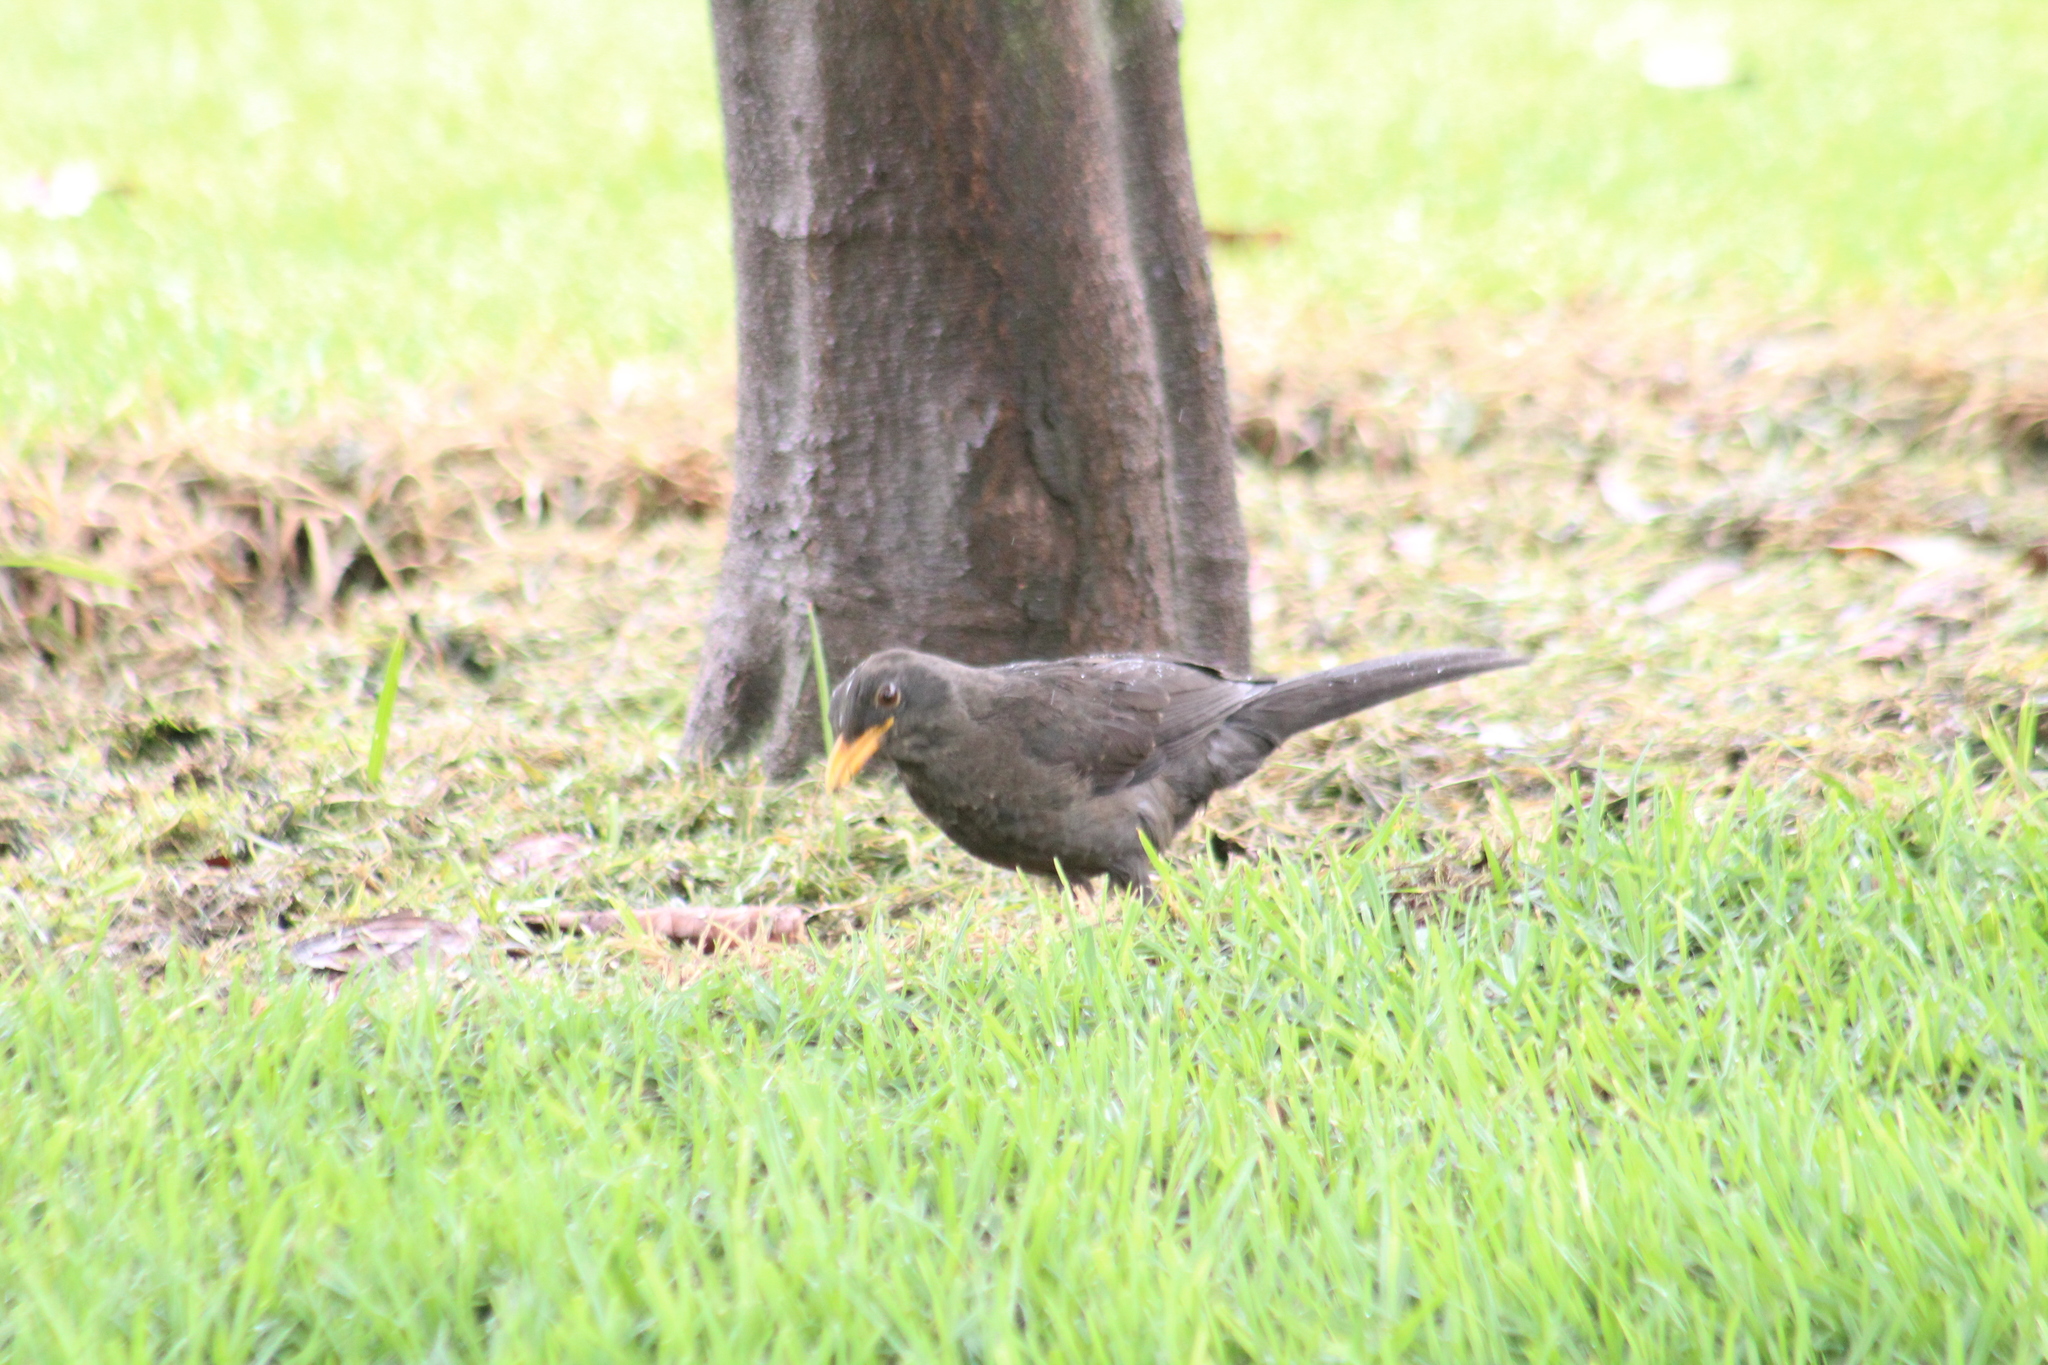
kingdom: Animalia
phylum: Chordata
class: Aves
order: Passeriformes
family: Turdidae
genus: Turdus
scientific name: Turdus fuscater
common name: Great thrush
